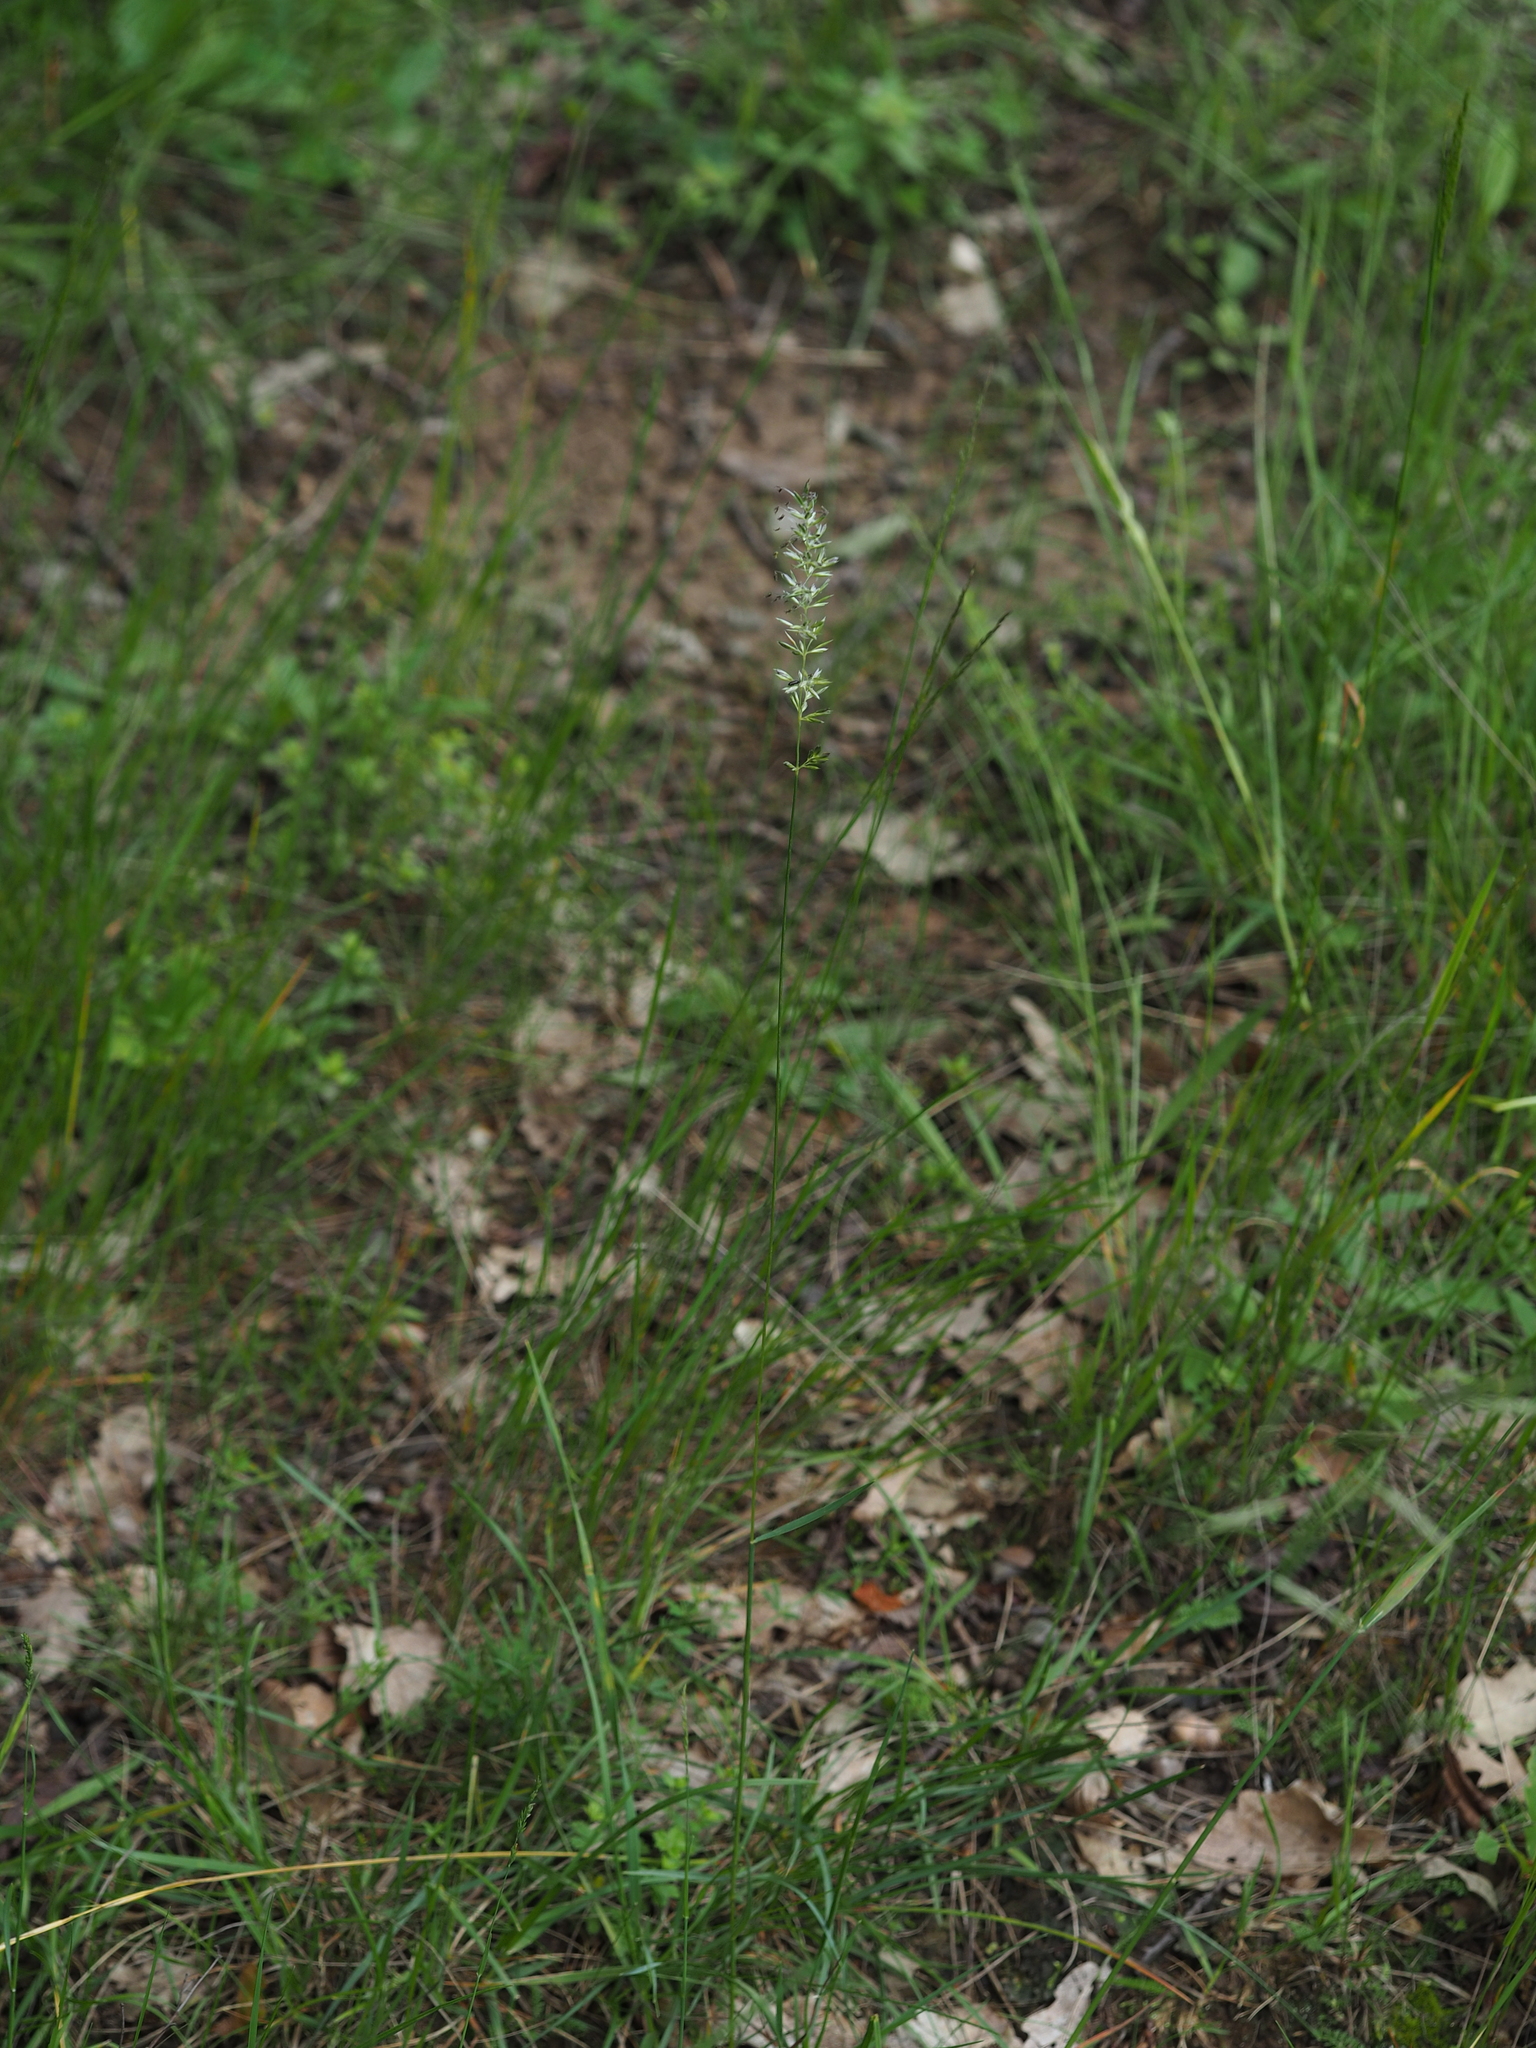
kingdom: Plantae
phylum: Tracheophyta
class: Liliopsida
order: Poales
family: Poaceae
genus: Koeleria
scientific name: Koeleria macrantha
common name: Crested hair-grass
